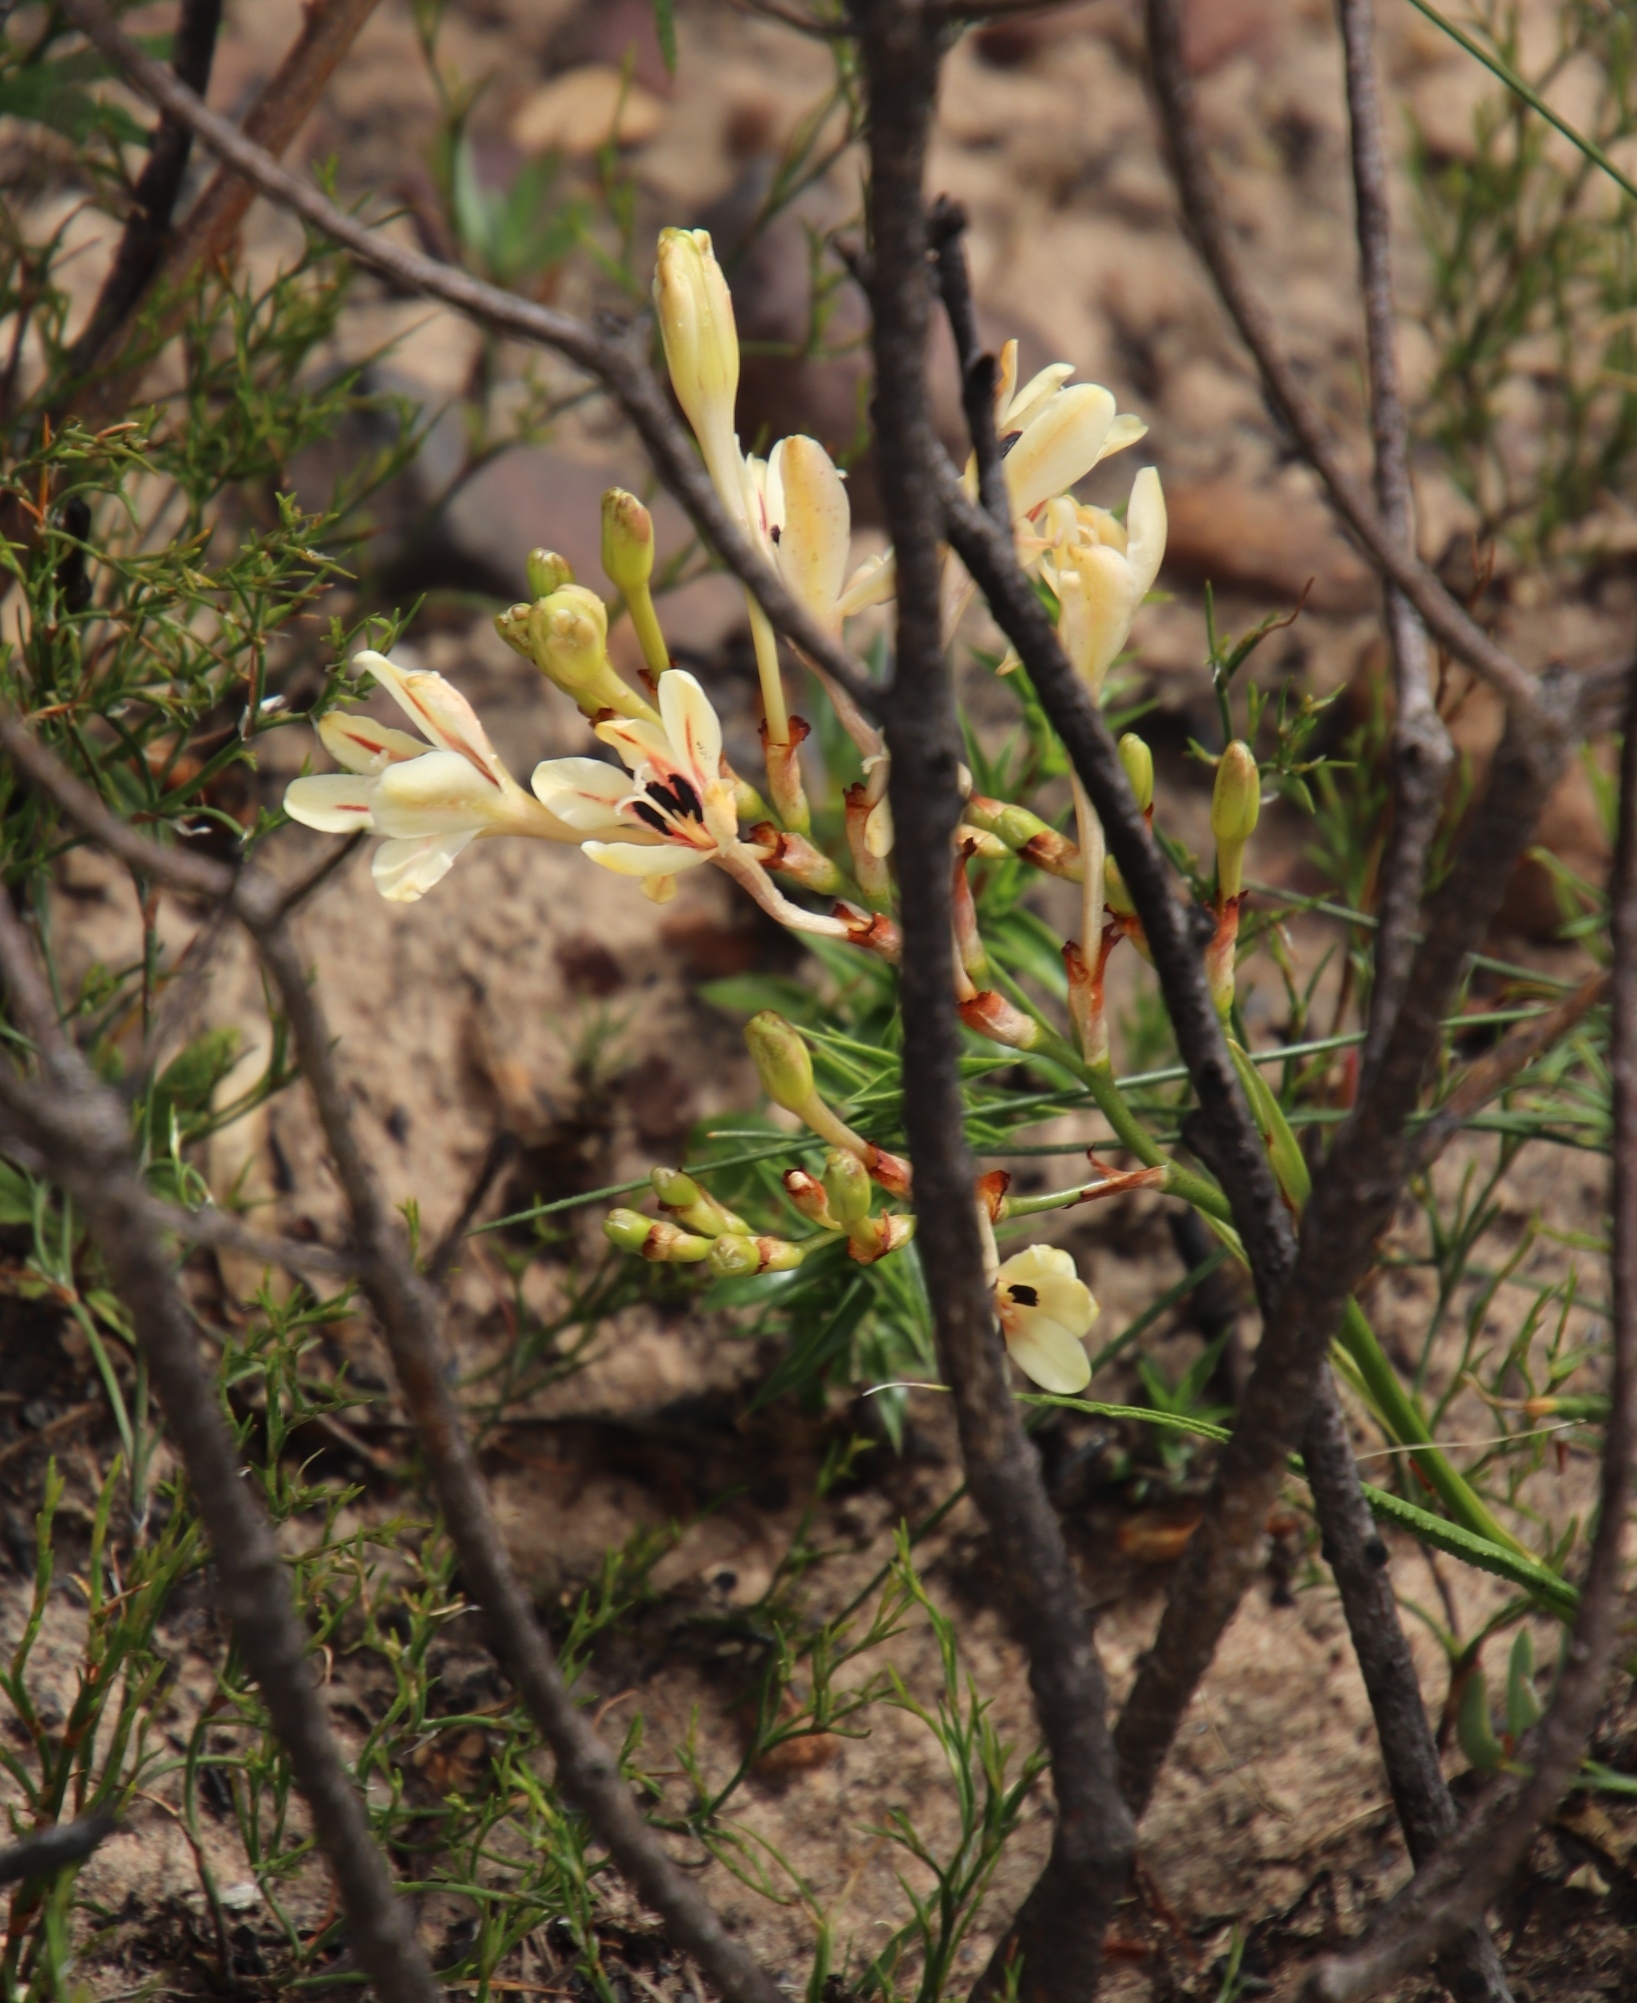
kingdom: Plantae
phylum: Tracheophyta
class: Liliopsida
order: Asparagales
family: Iridaceae
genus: Tritonia
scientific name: Tritonia undulata
